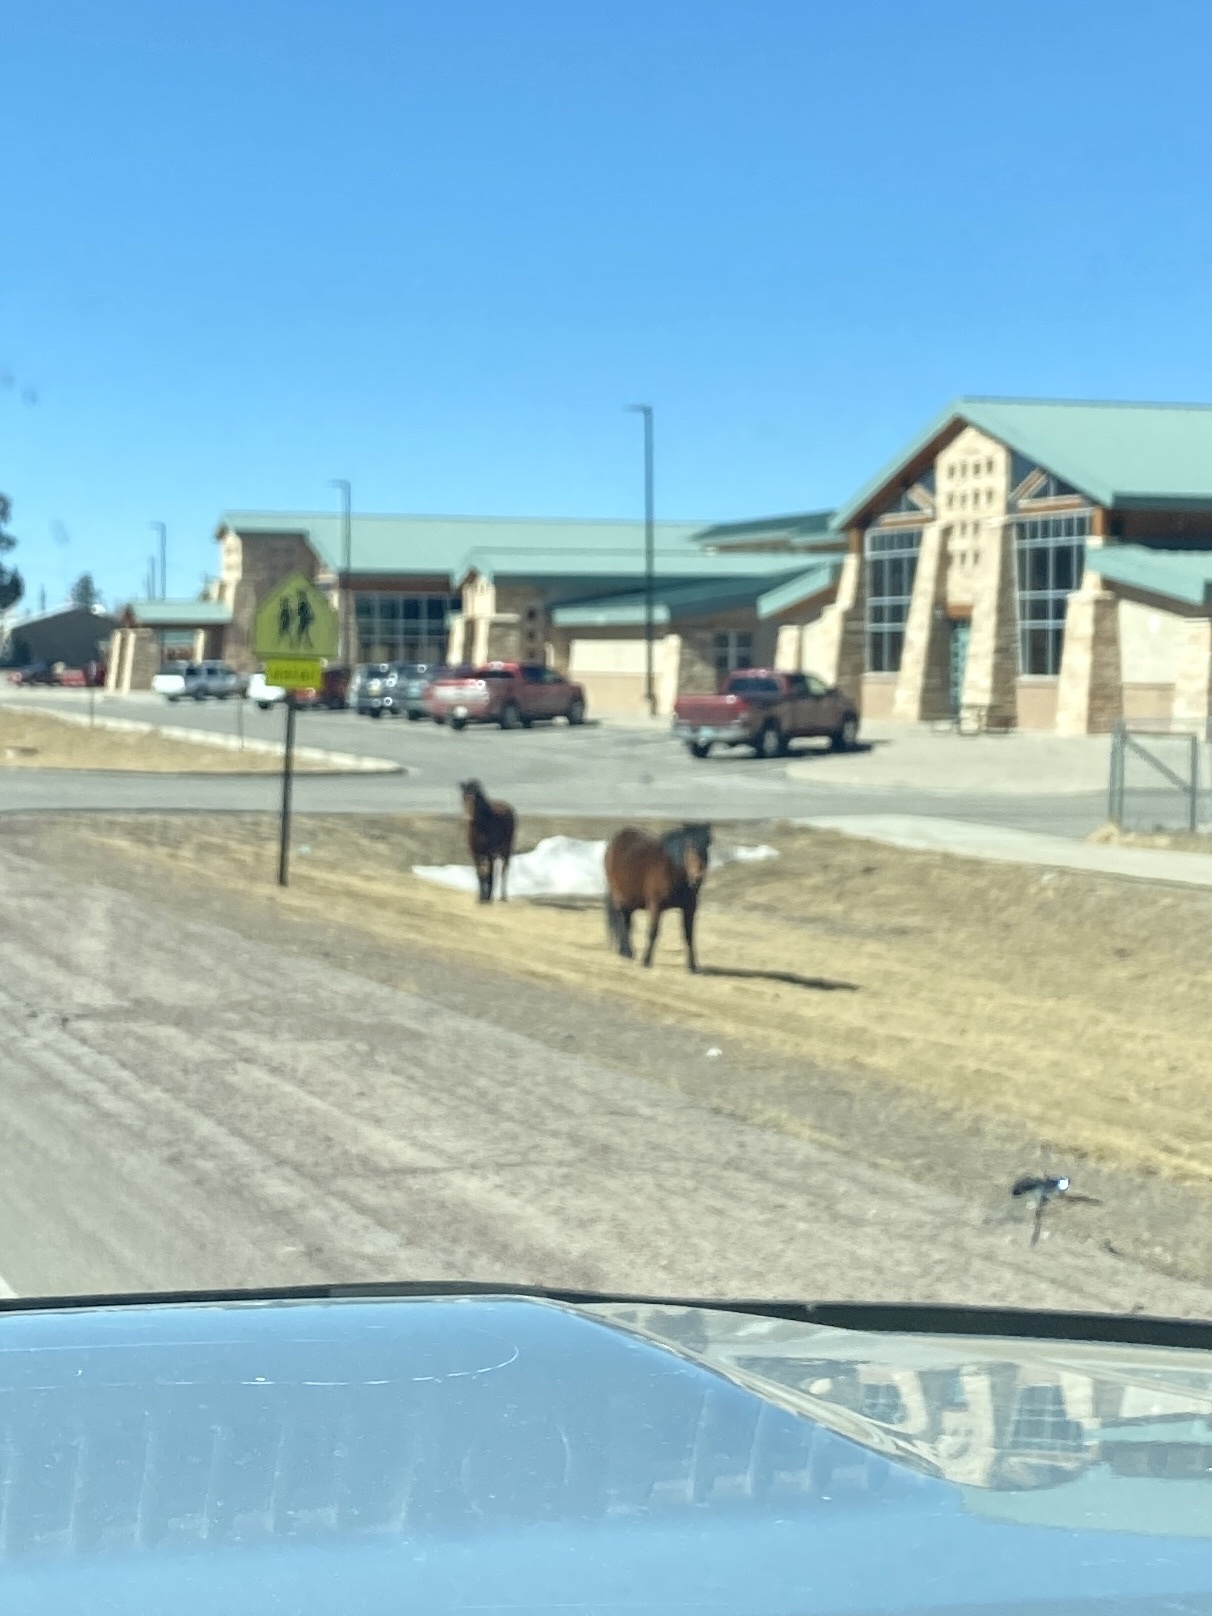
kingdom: Animalia
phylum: Chordata
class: Mammalia
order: Perissodactyla
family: Equidae
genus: Equus
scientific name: Equus caballus
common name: Horse
